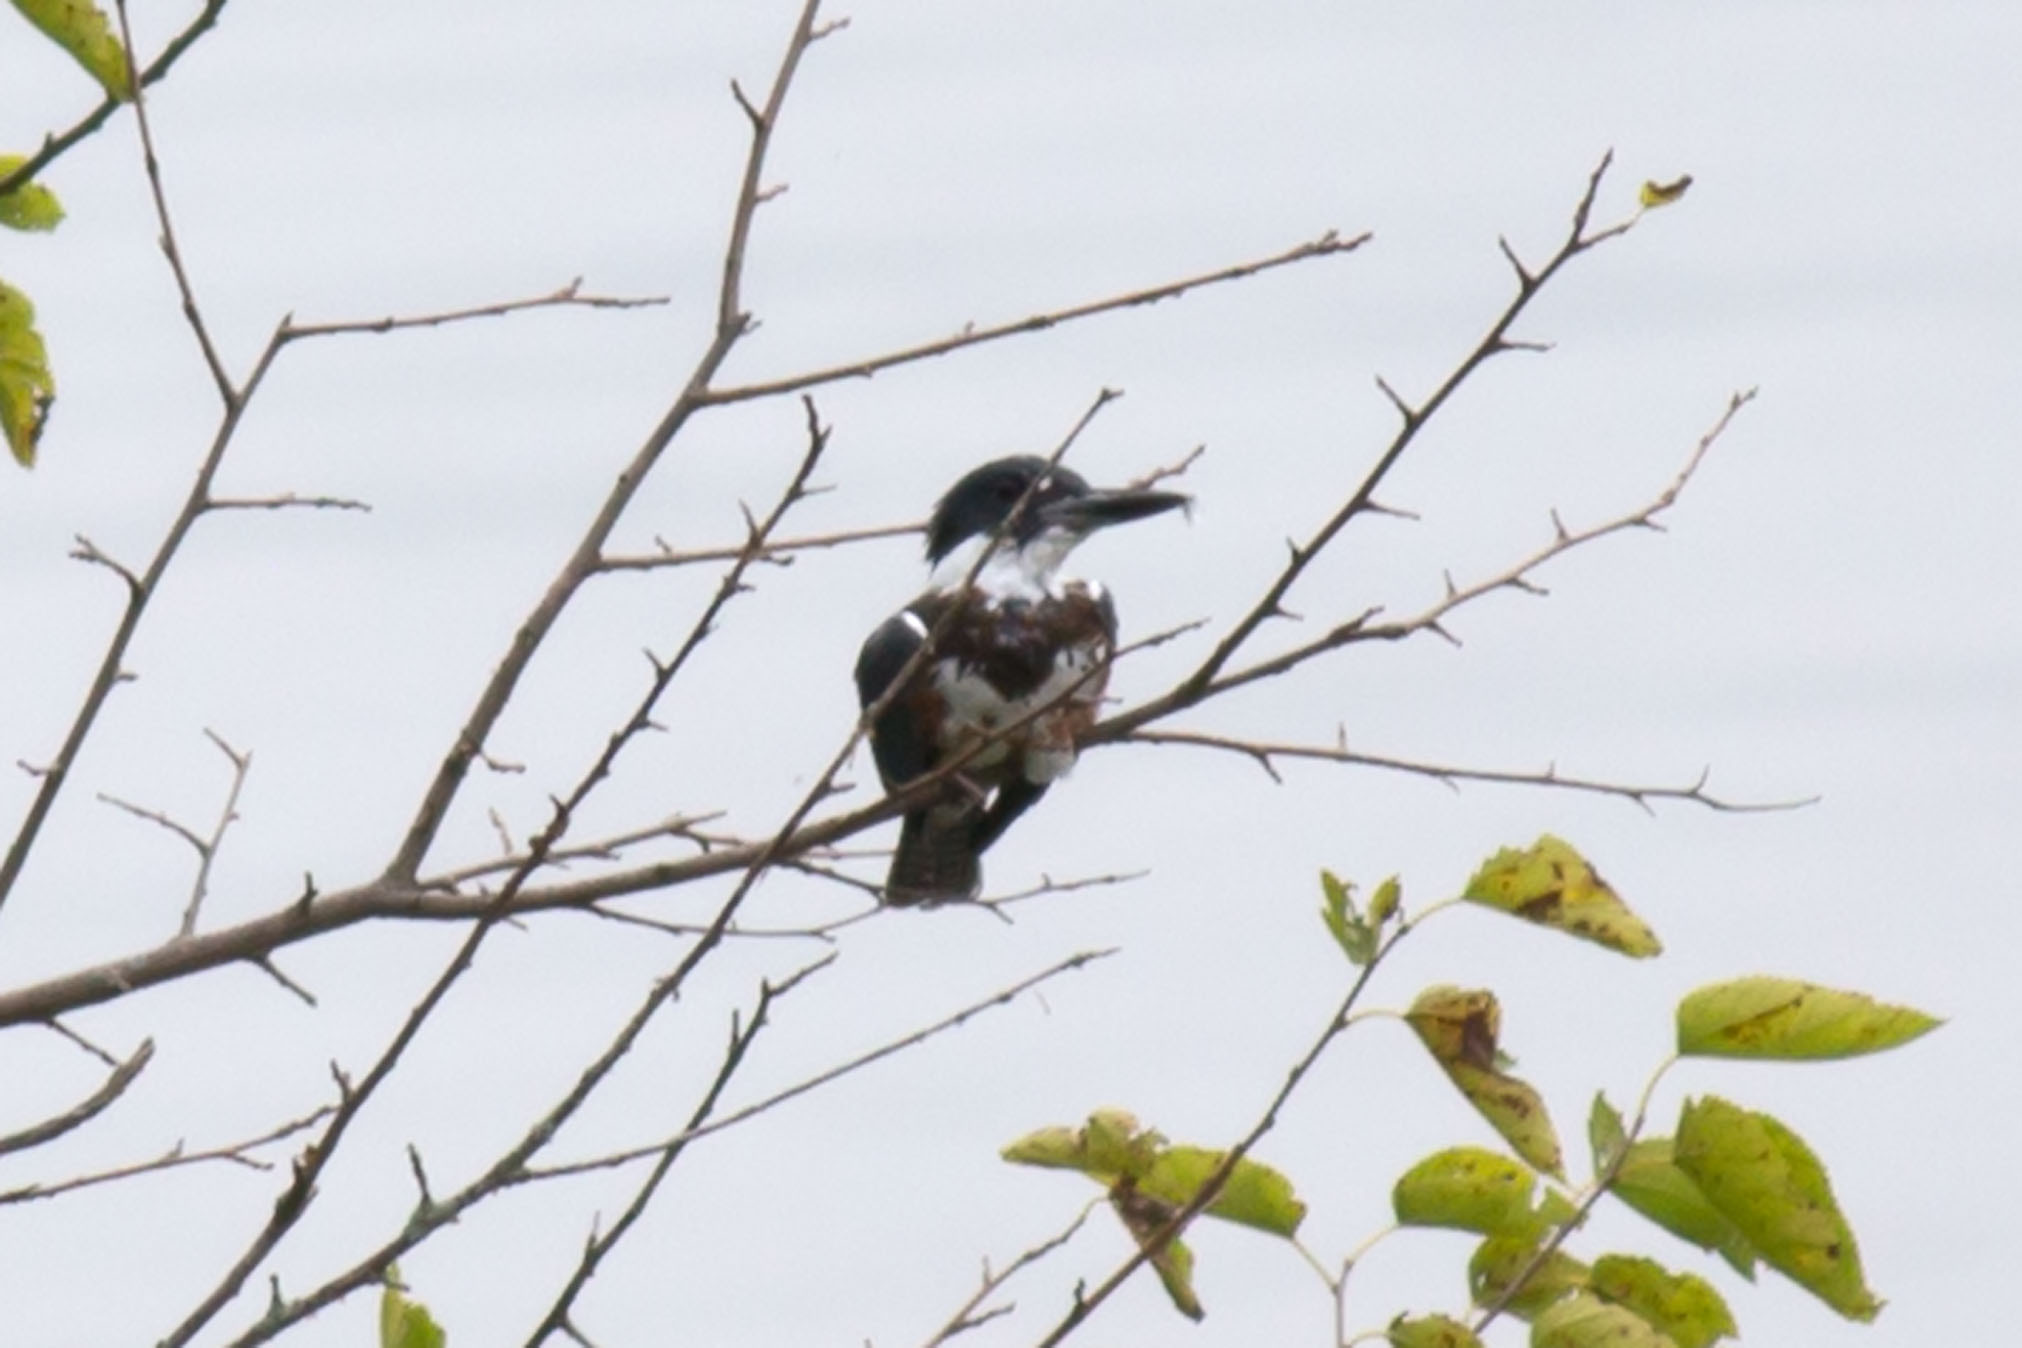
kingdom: Animalia
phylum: Chordata
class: Aves
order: Coraciiformes
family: Alcedinidae
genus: Megaceryle
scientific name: Megaceryle alcyon
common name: Belted kingfisher
